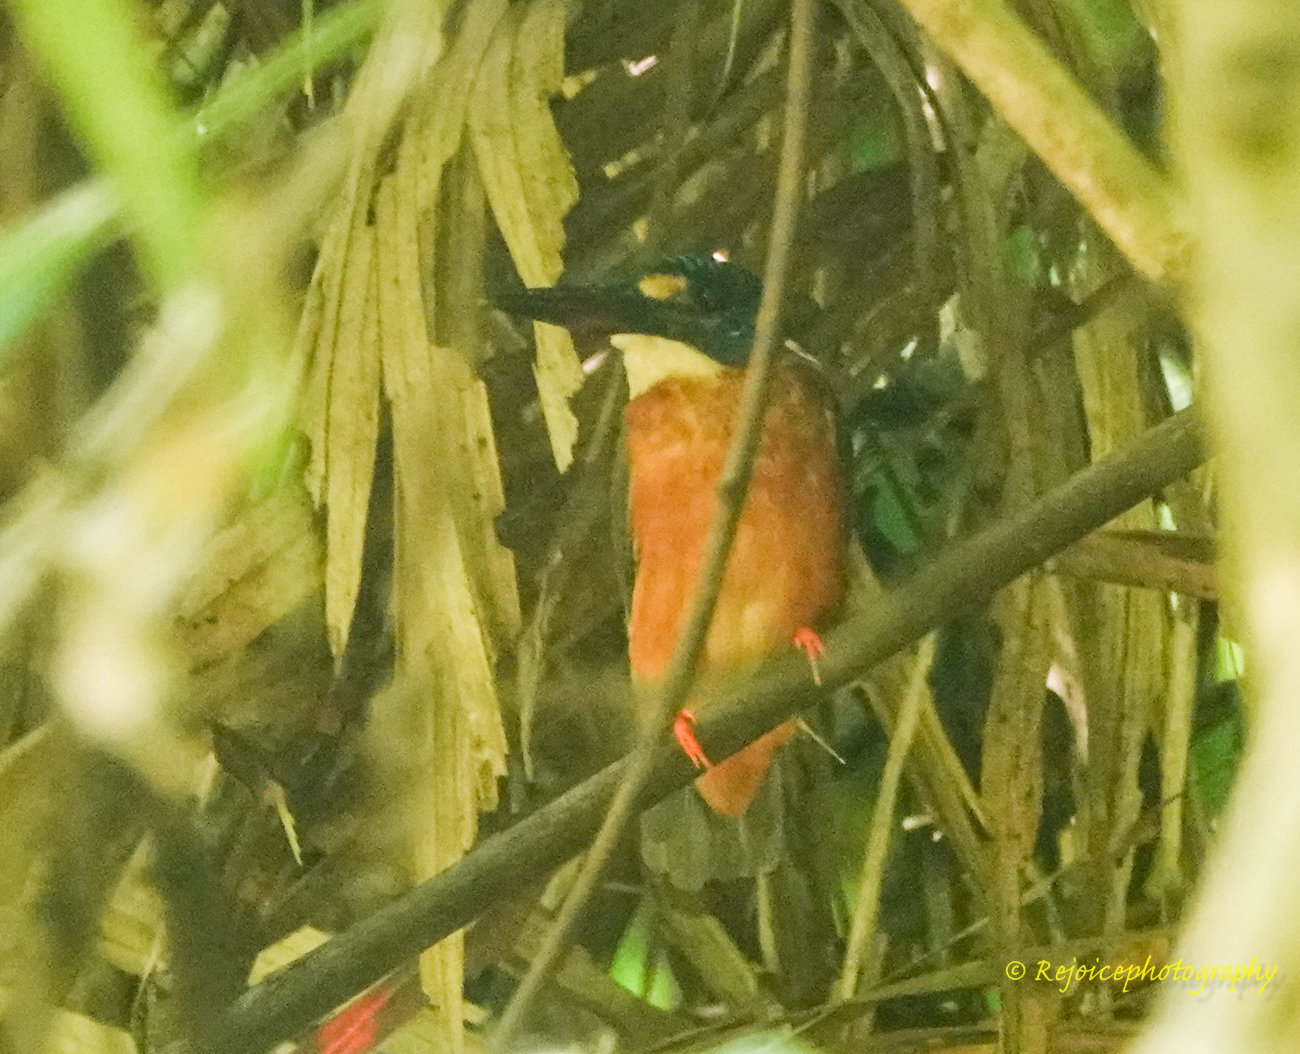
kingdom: Animalia
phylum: Chordata
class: Aves
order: Coraciiformes
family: Alcedinidae
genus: Alcedo
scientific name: Alcedo meninting
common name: Blue-eared kingfisher
